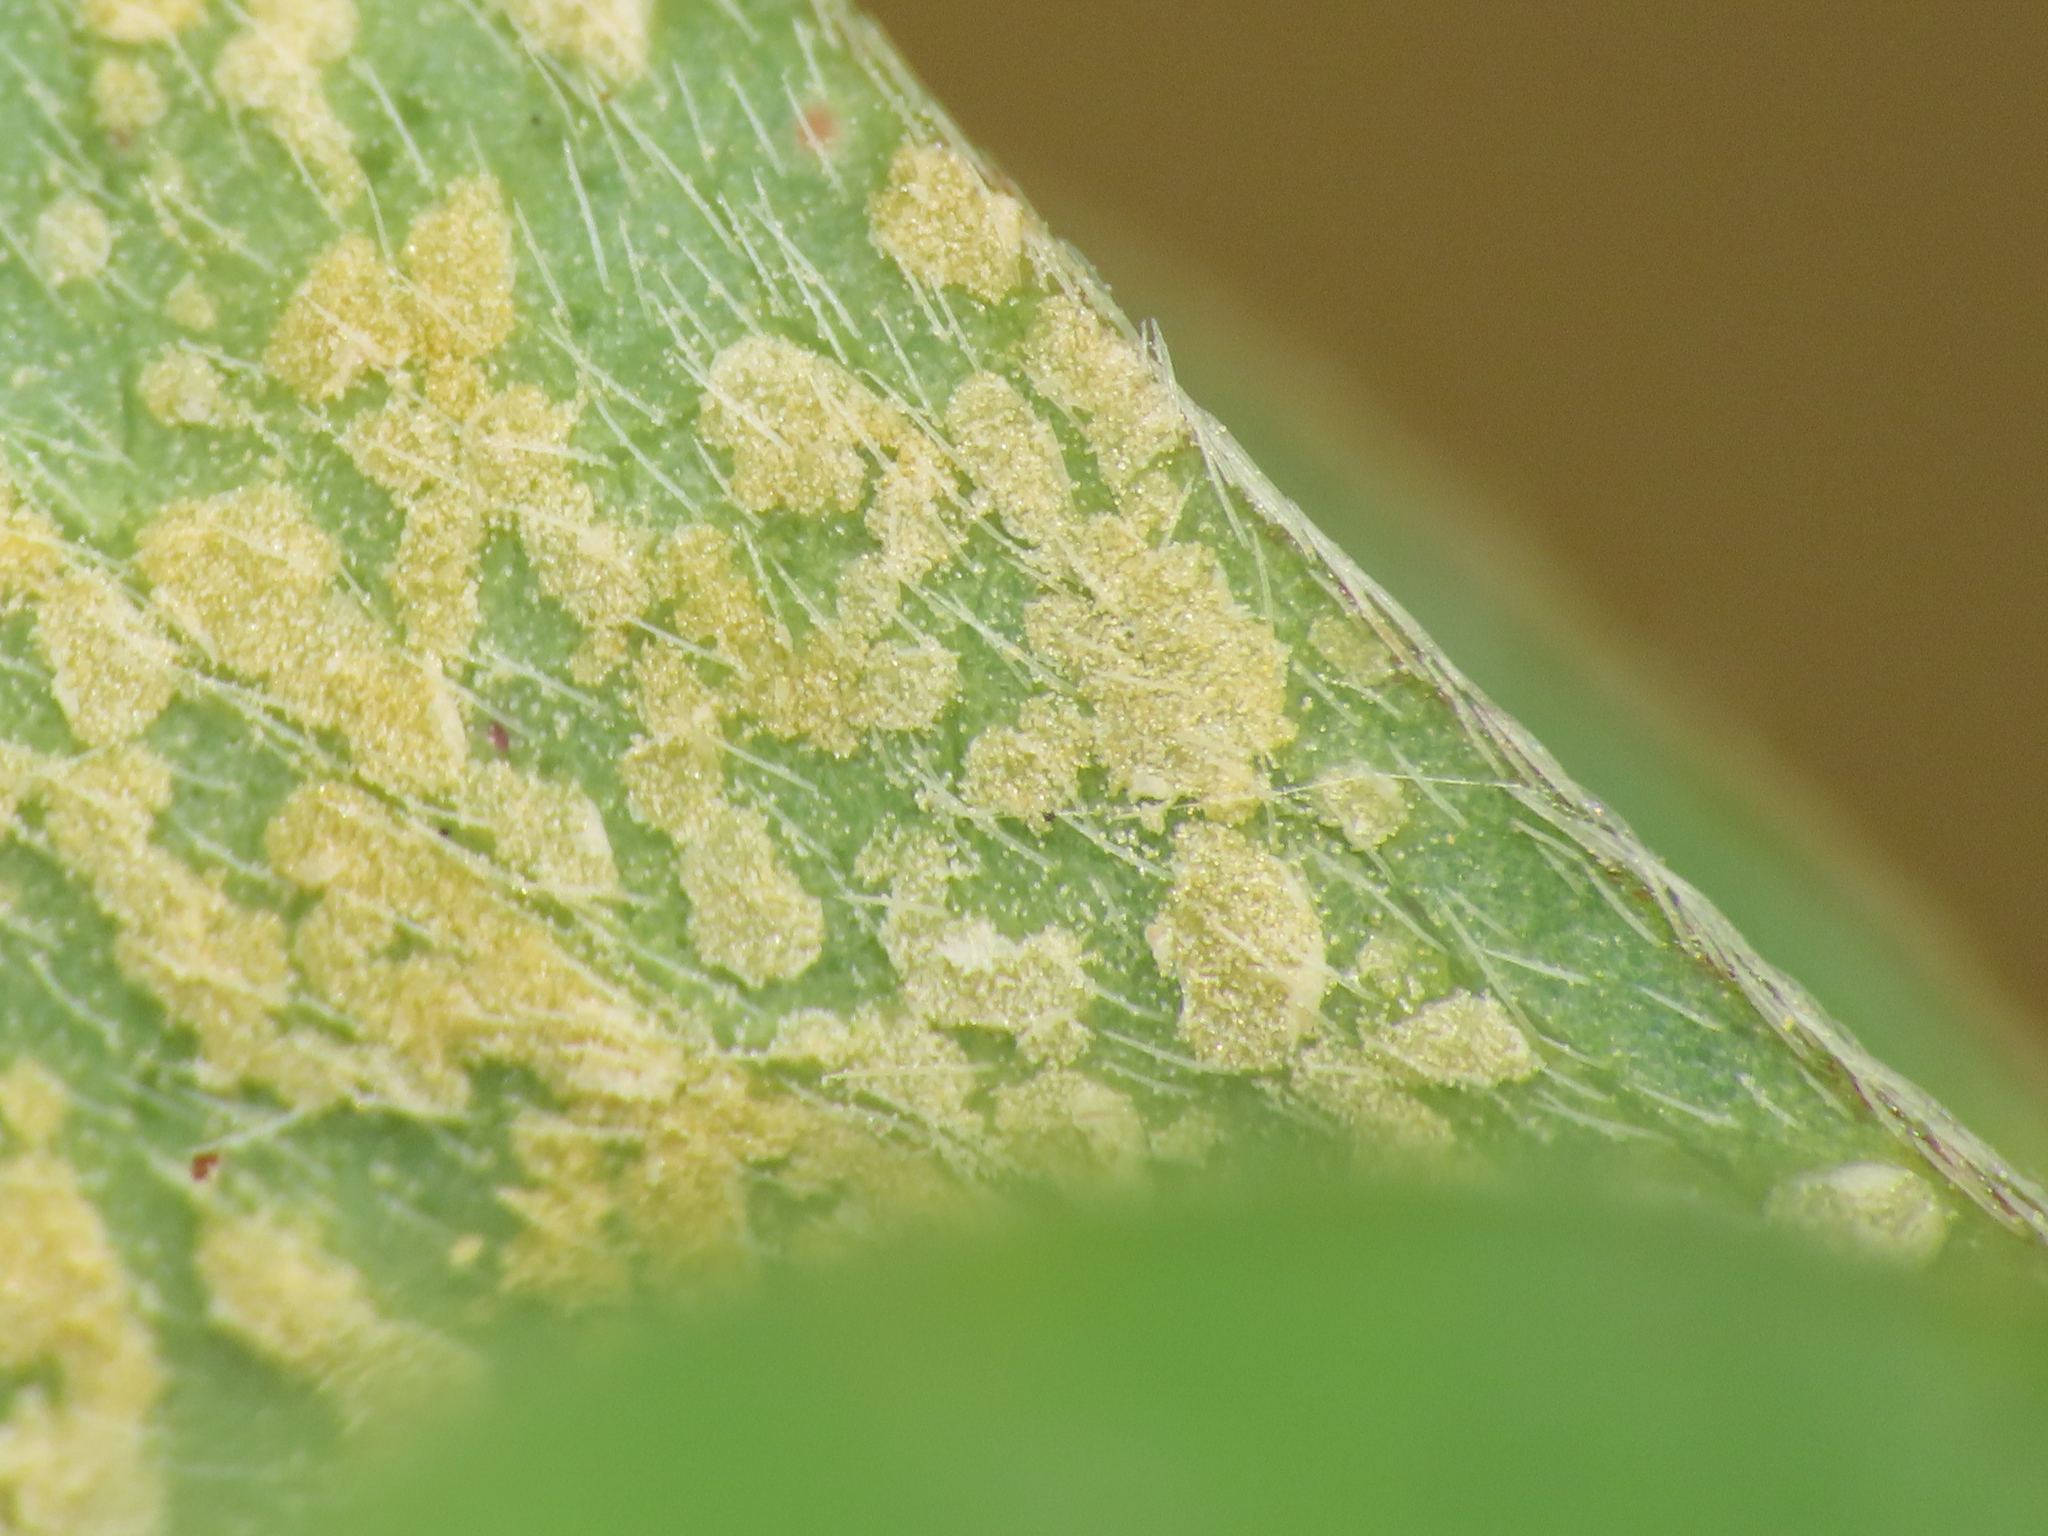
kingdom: Fungi
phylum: Basidiomycota
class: Pucciniomycetes
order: Pucciniales
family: Pucciniaceae
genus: Puccinia
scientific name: Puccinia oxalidis
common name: Oxalis rust
